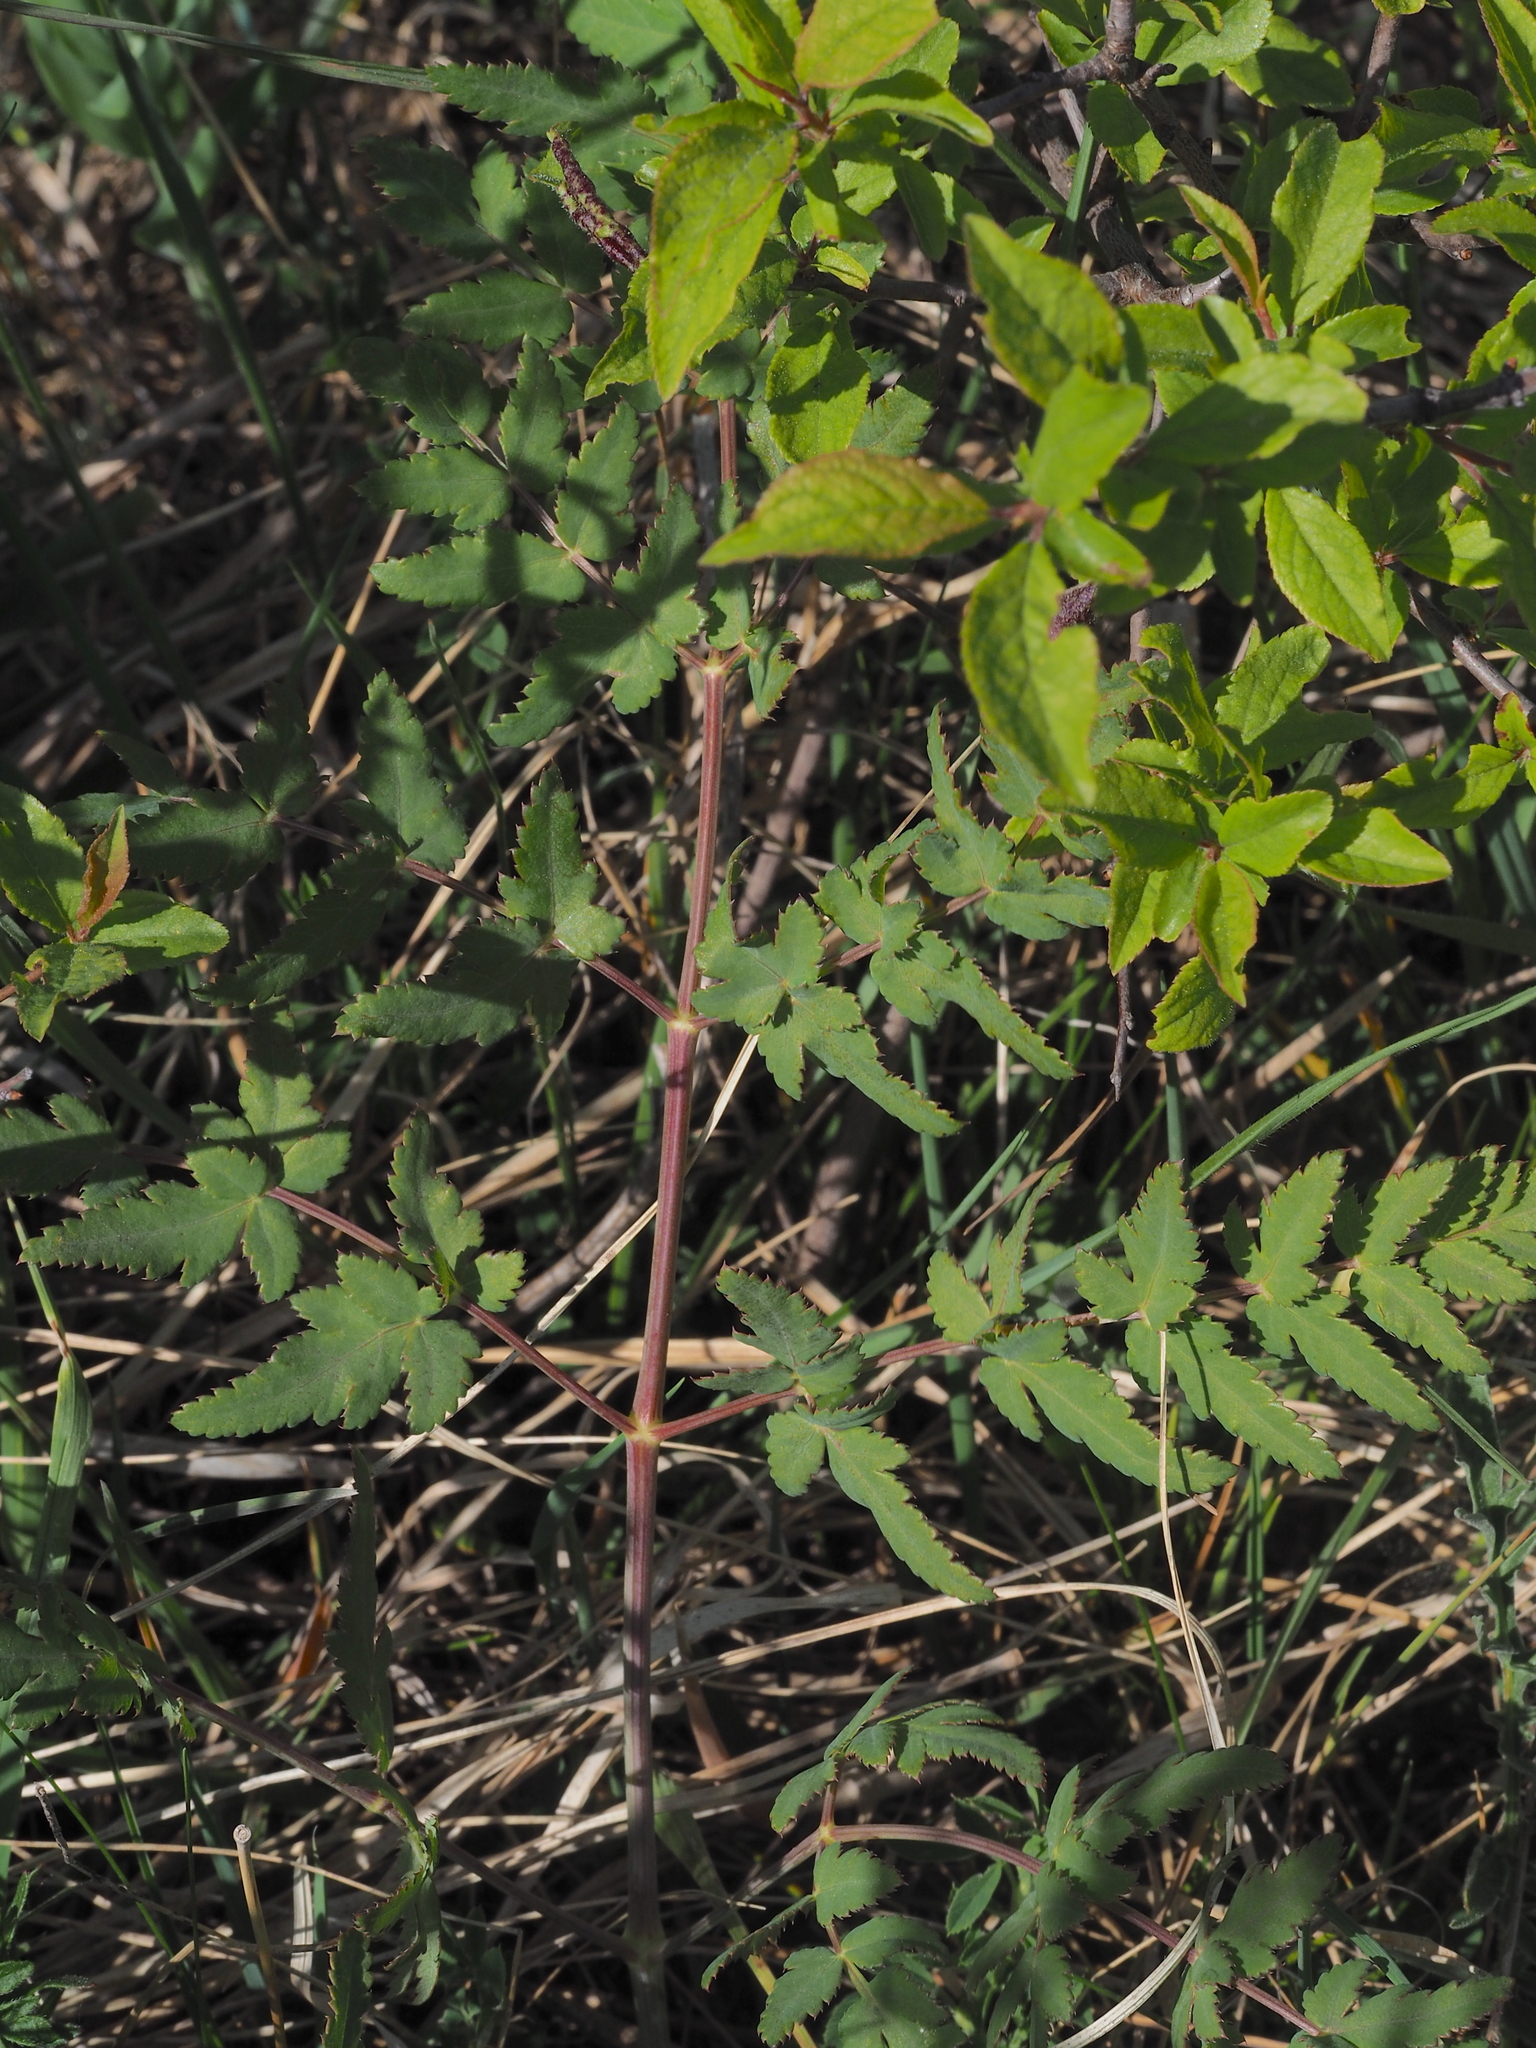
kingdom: Plantae
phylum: Tracheophyta
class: Magnoliopsida
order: Apiales
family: Apiaceae
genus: Cervaria
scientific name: Cervaria rivini
